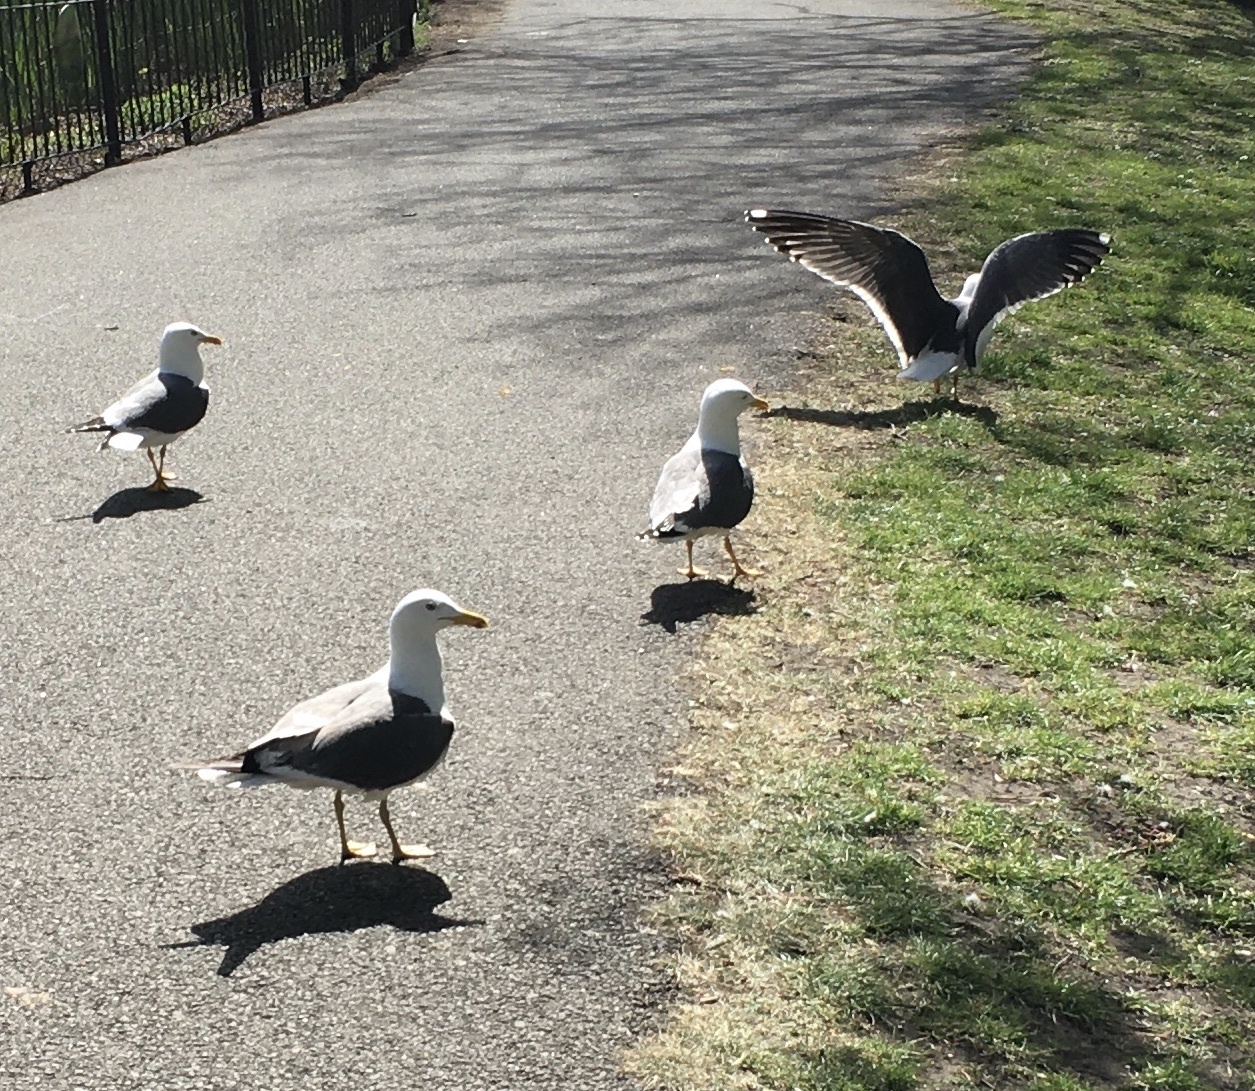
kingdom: Animalia
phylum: Chordata
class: Aves
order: Charadriiformes
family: Laridae
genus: Larus
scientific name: Larus fuscus
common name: Lesser black-backed gull
